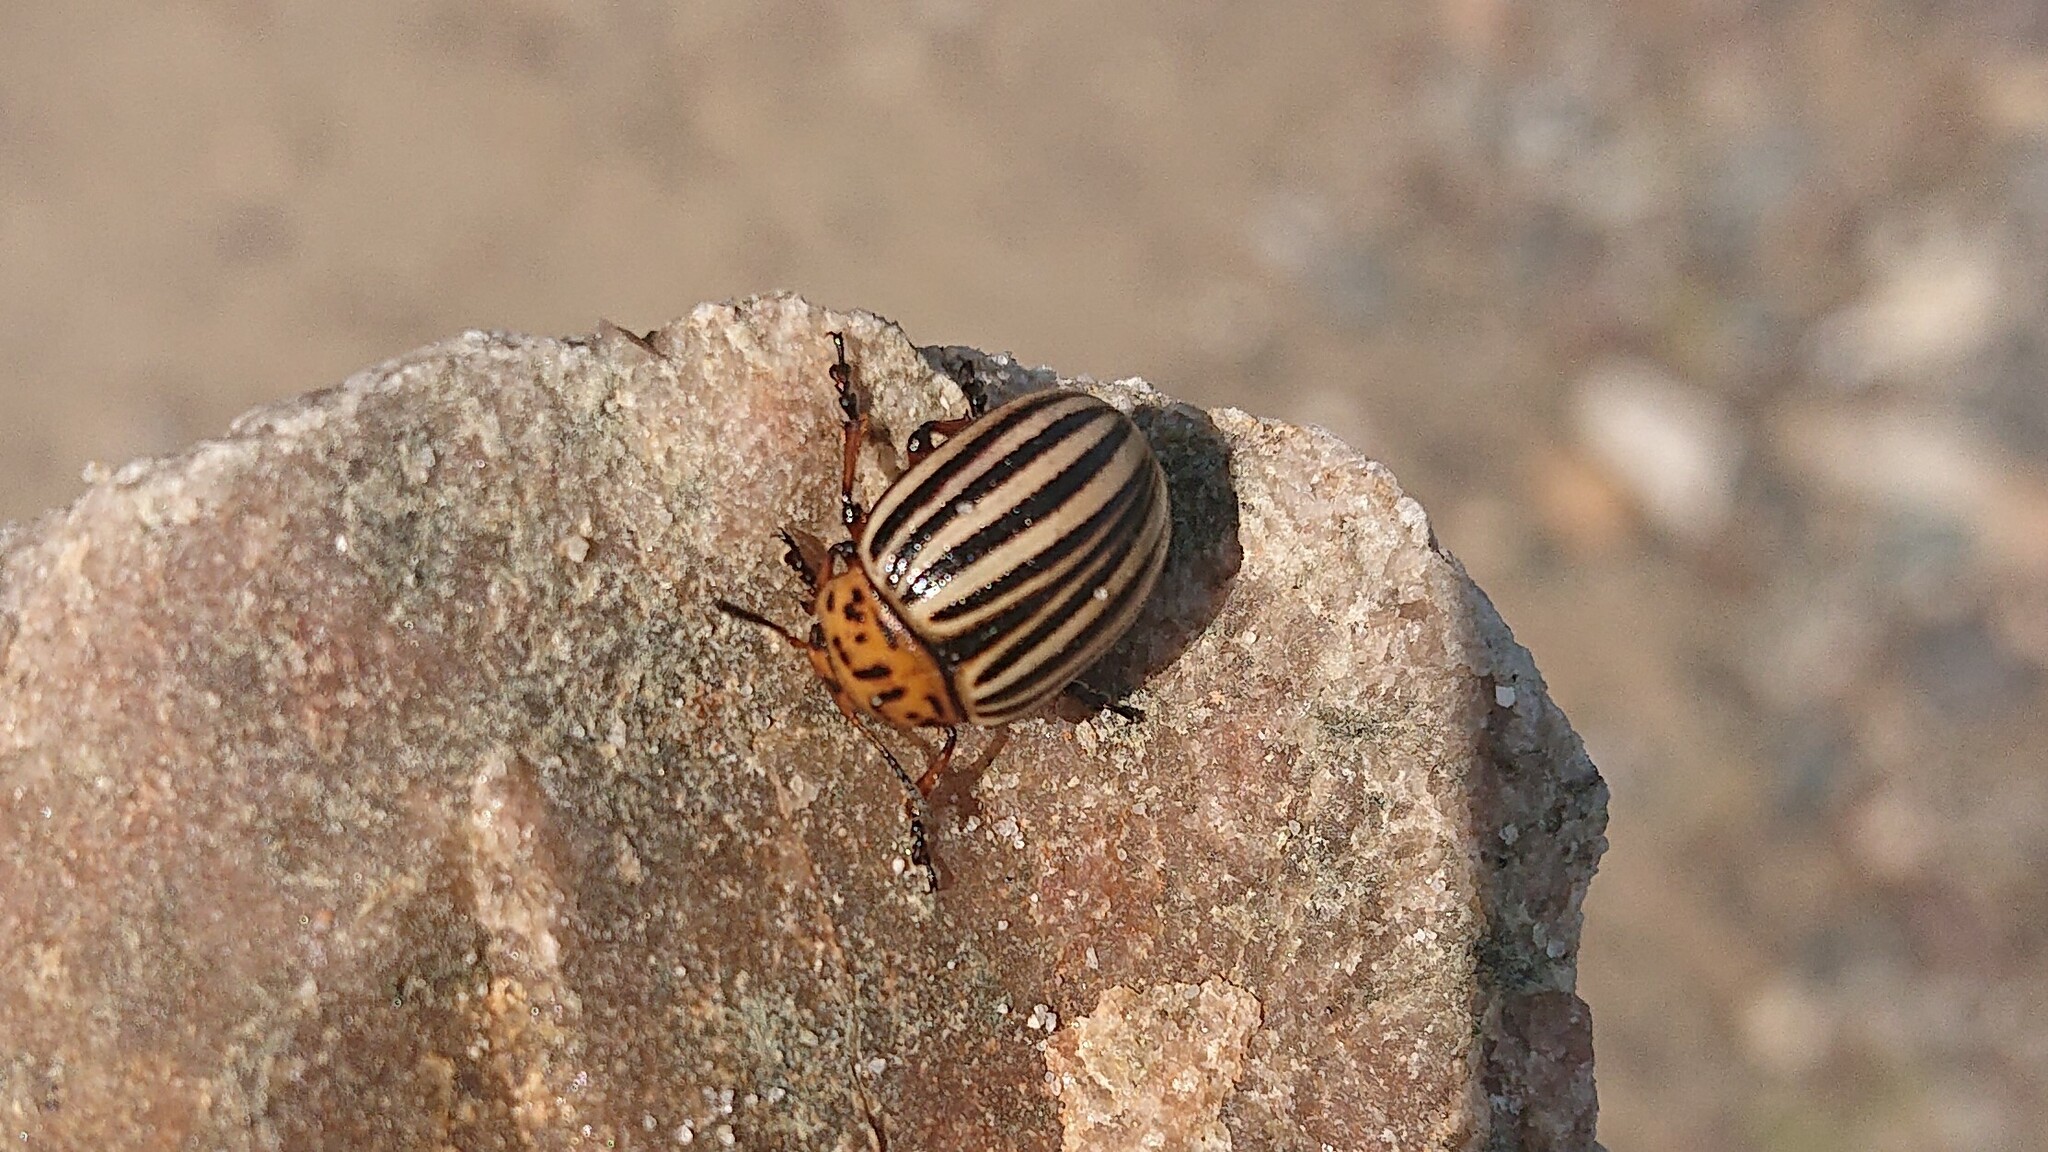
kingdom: Animalia
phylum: Arthropoda
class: Insecta
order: Coleoptera
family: Chrysomelidae
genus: Leptinotarsa
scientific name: Leptinotarsa decemlineata
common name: Colorado potato beetle
